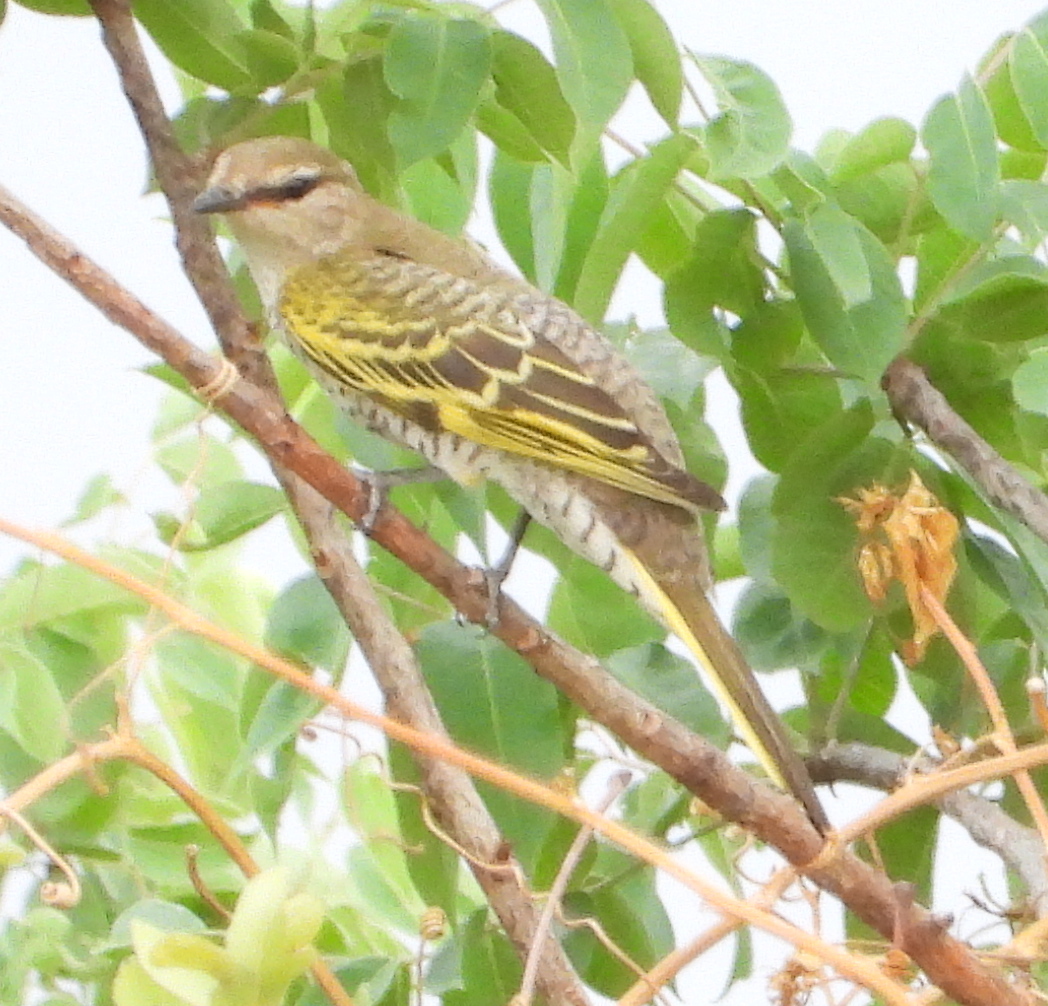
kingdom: Animalia
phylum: Chordata
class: Aves
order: Passeriformes
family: Campephagidae
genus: Campephaga
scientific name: Campephaga flava
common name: Black cuckooshrike
